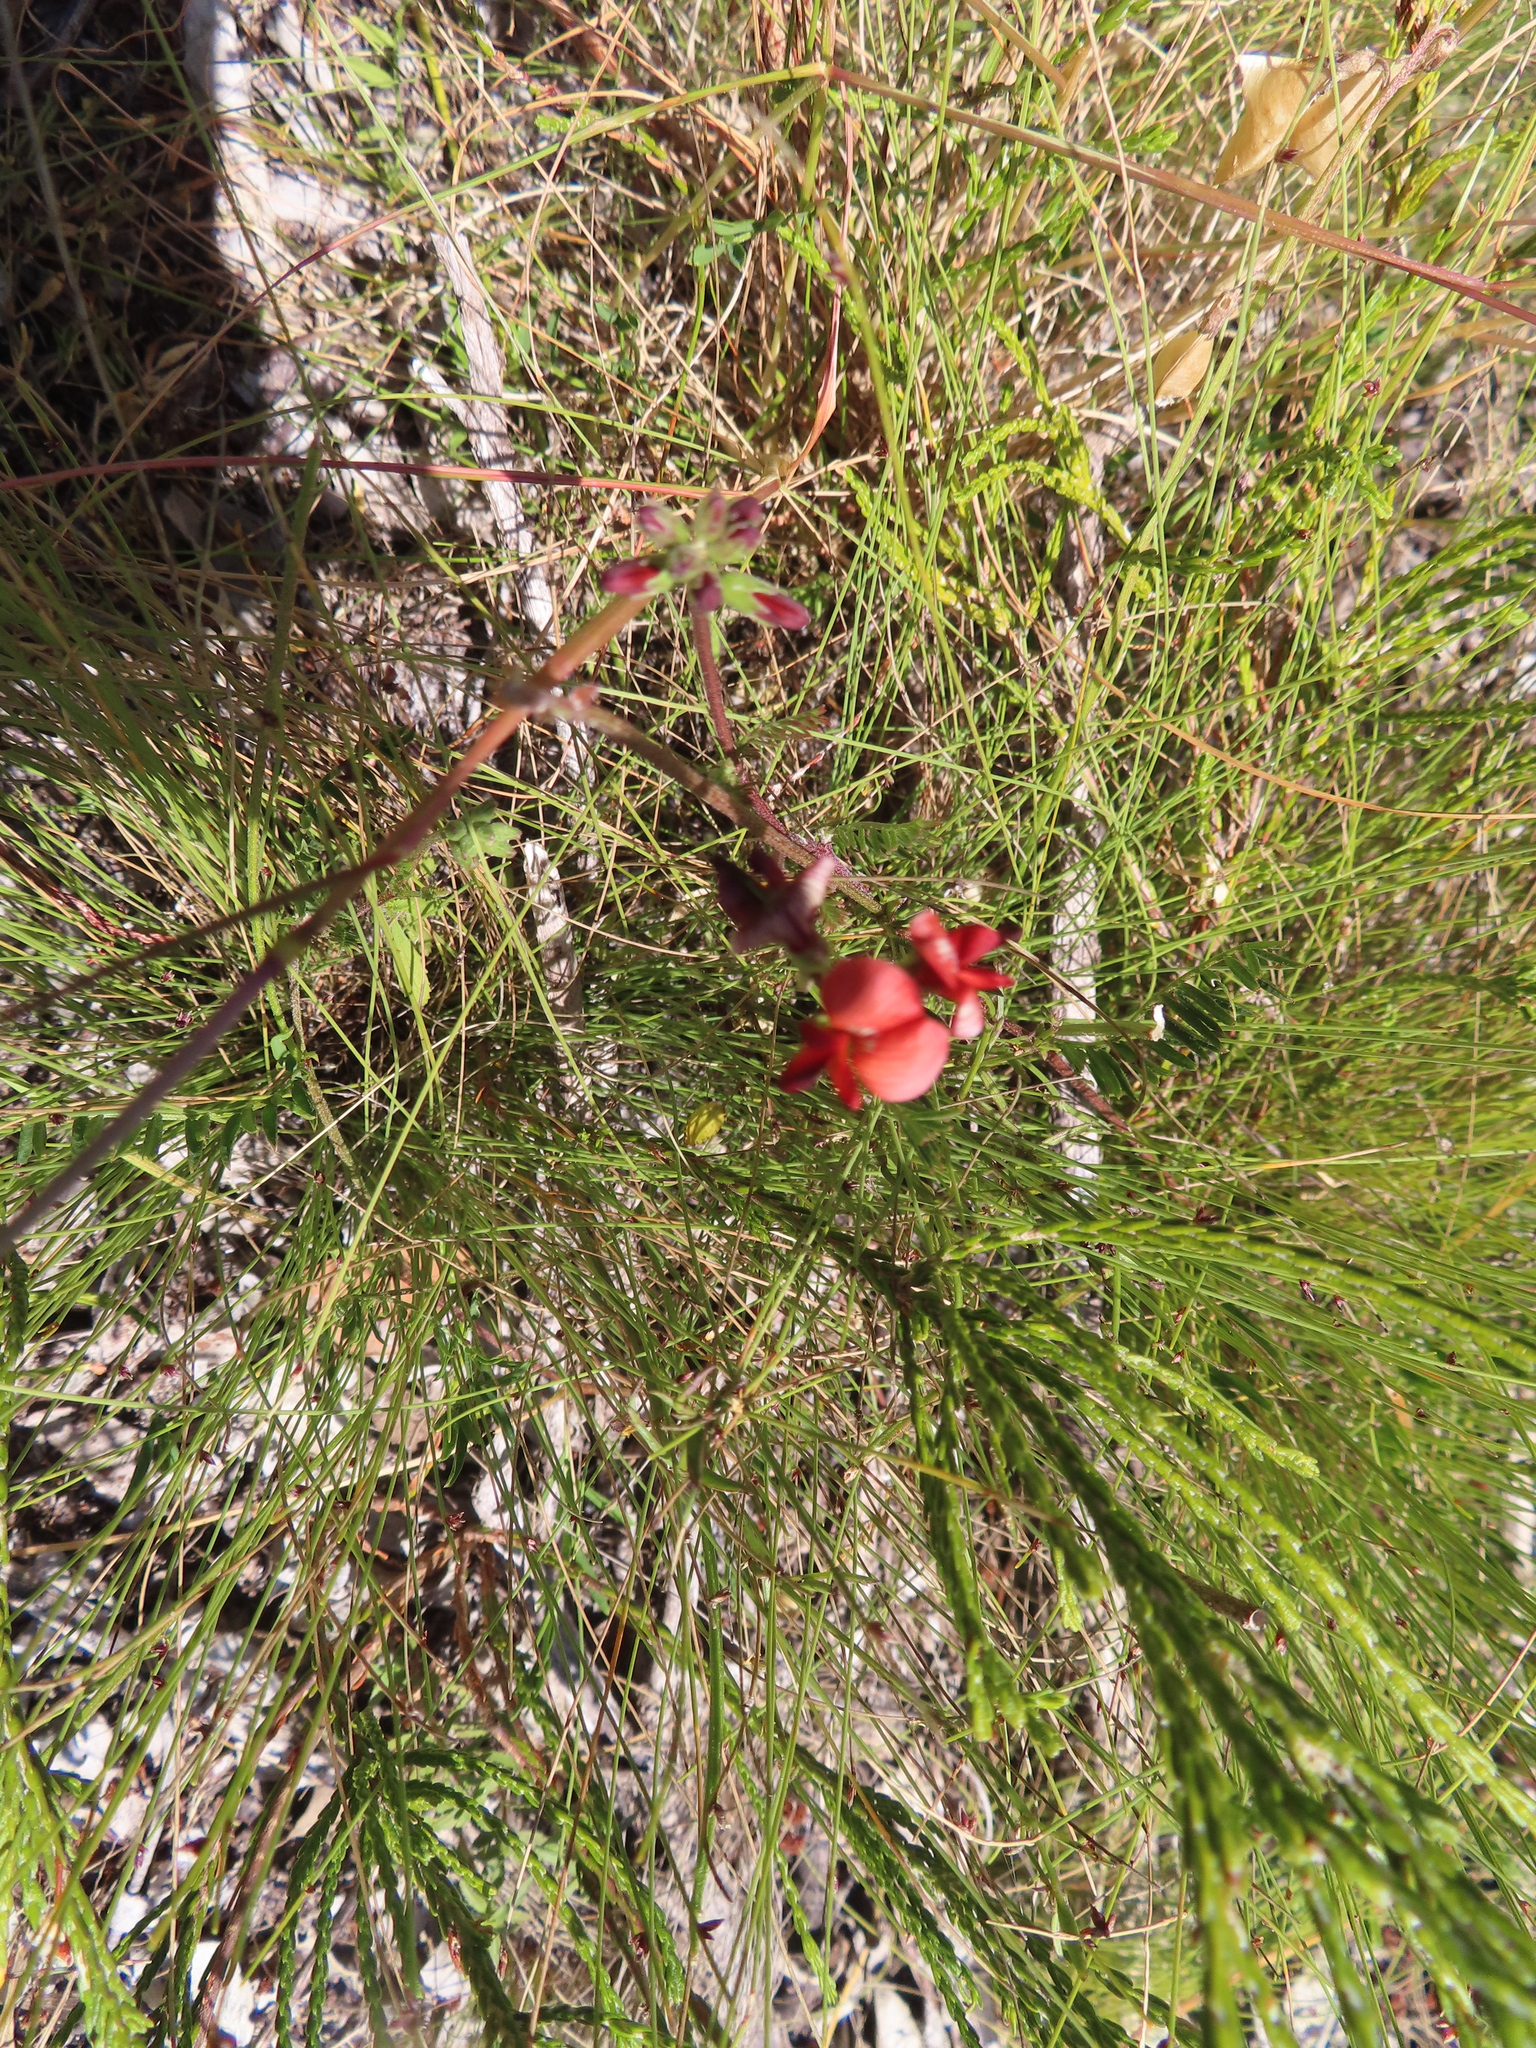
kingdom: Plantae
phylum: Tracheophyta
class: Magnoliopsida
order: Fabales
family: Fabaceae
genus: Lessertia
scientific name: Lessertia miniata
